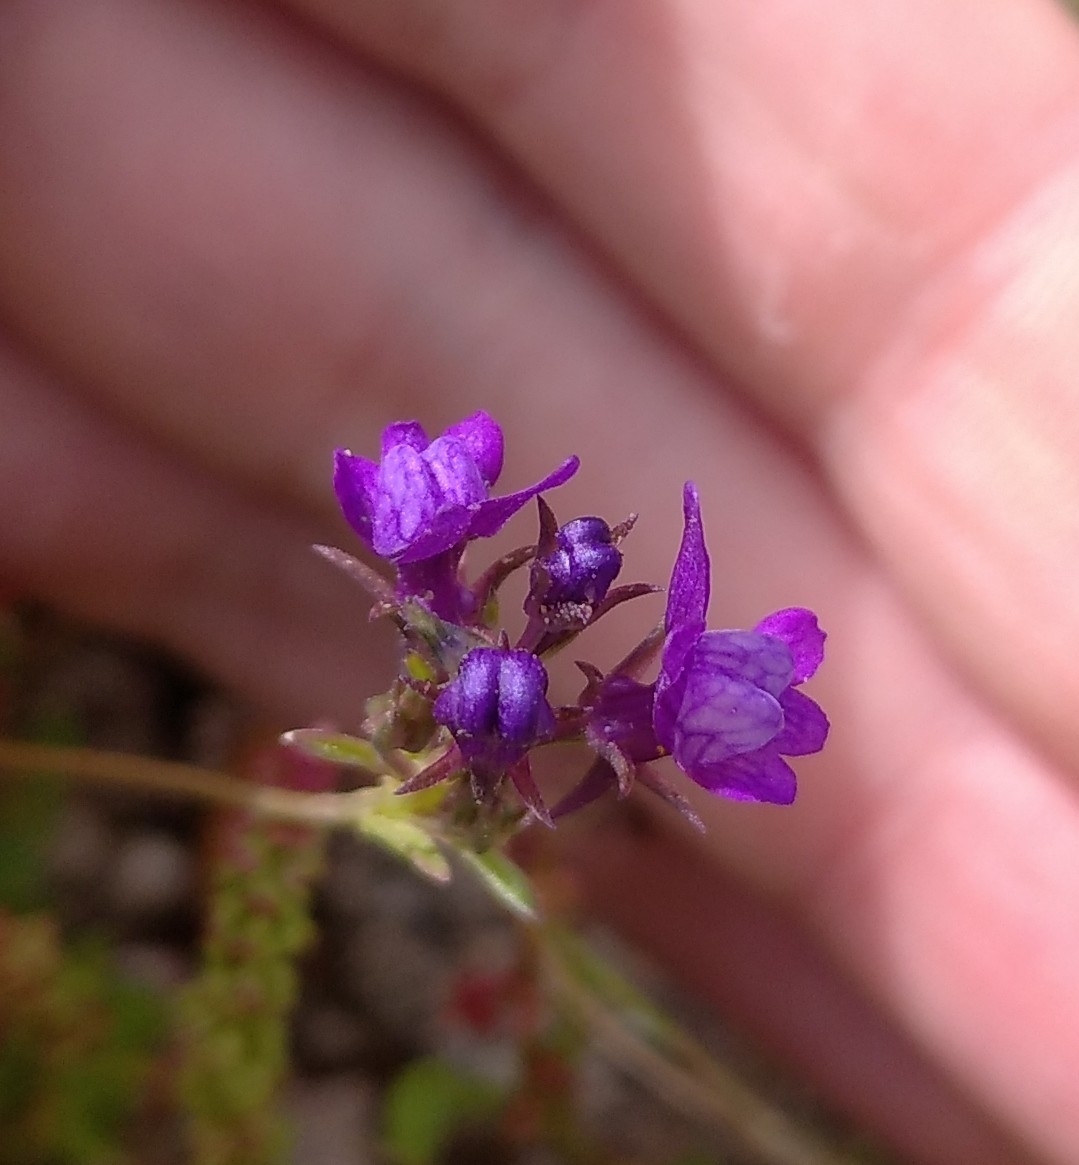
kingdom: Plantae
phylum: Tracheophyta
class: Magnoliopsida
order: Lamiales
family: Plantaginaceae
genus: Linaria
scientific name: Linaria pelisseriana
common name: Jersey toadflax
